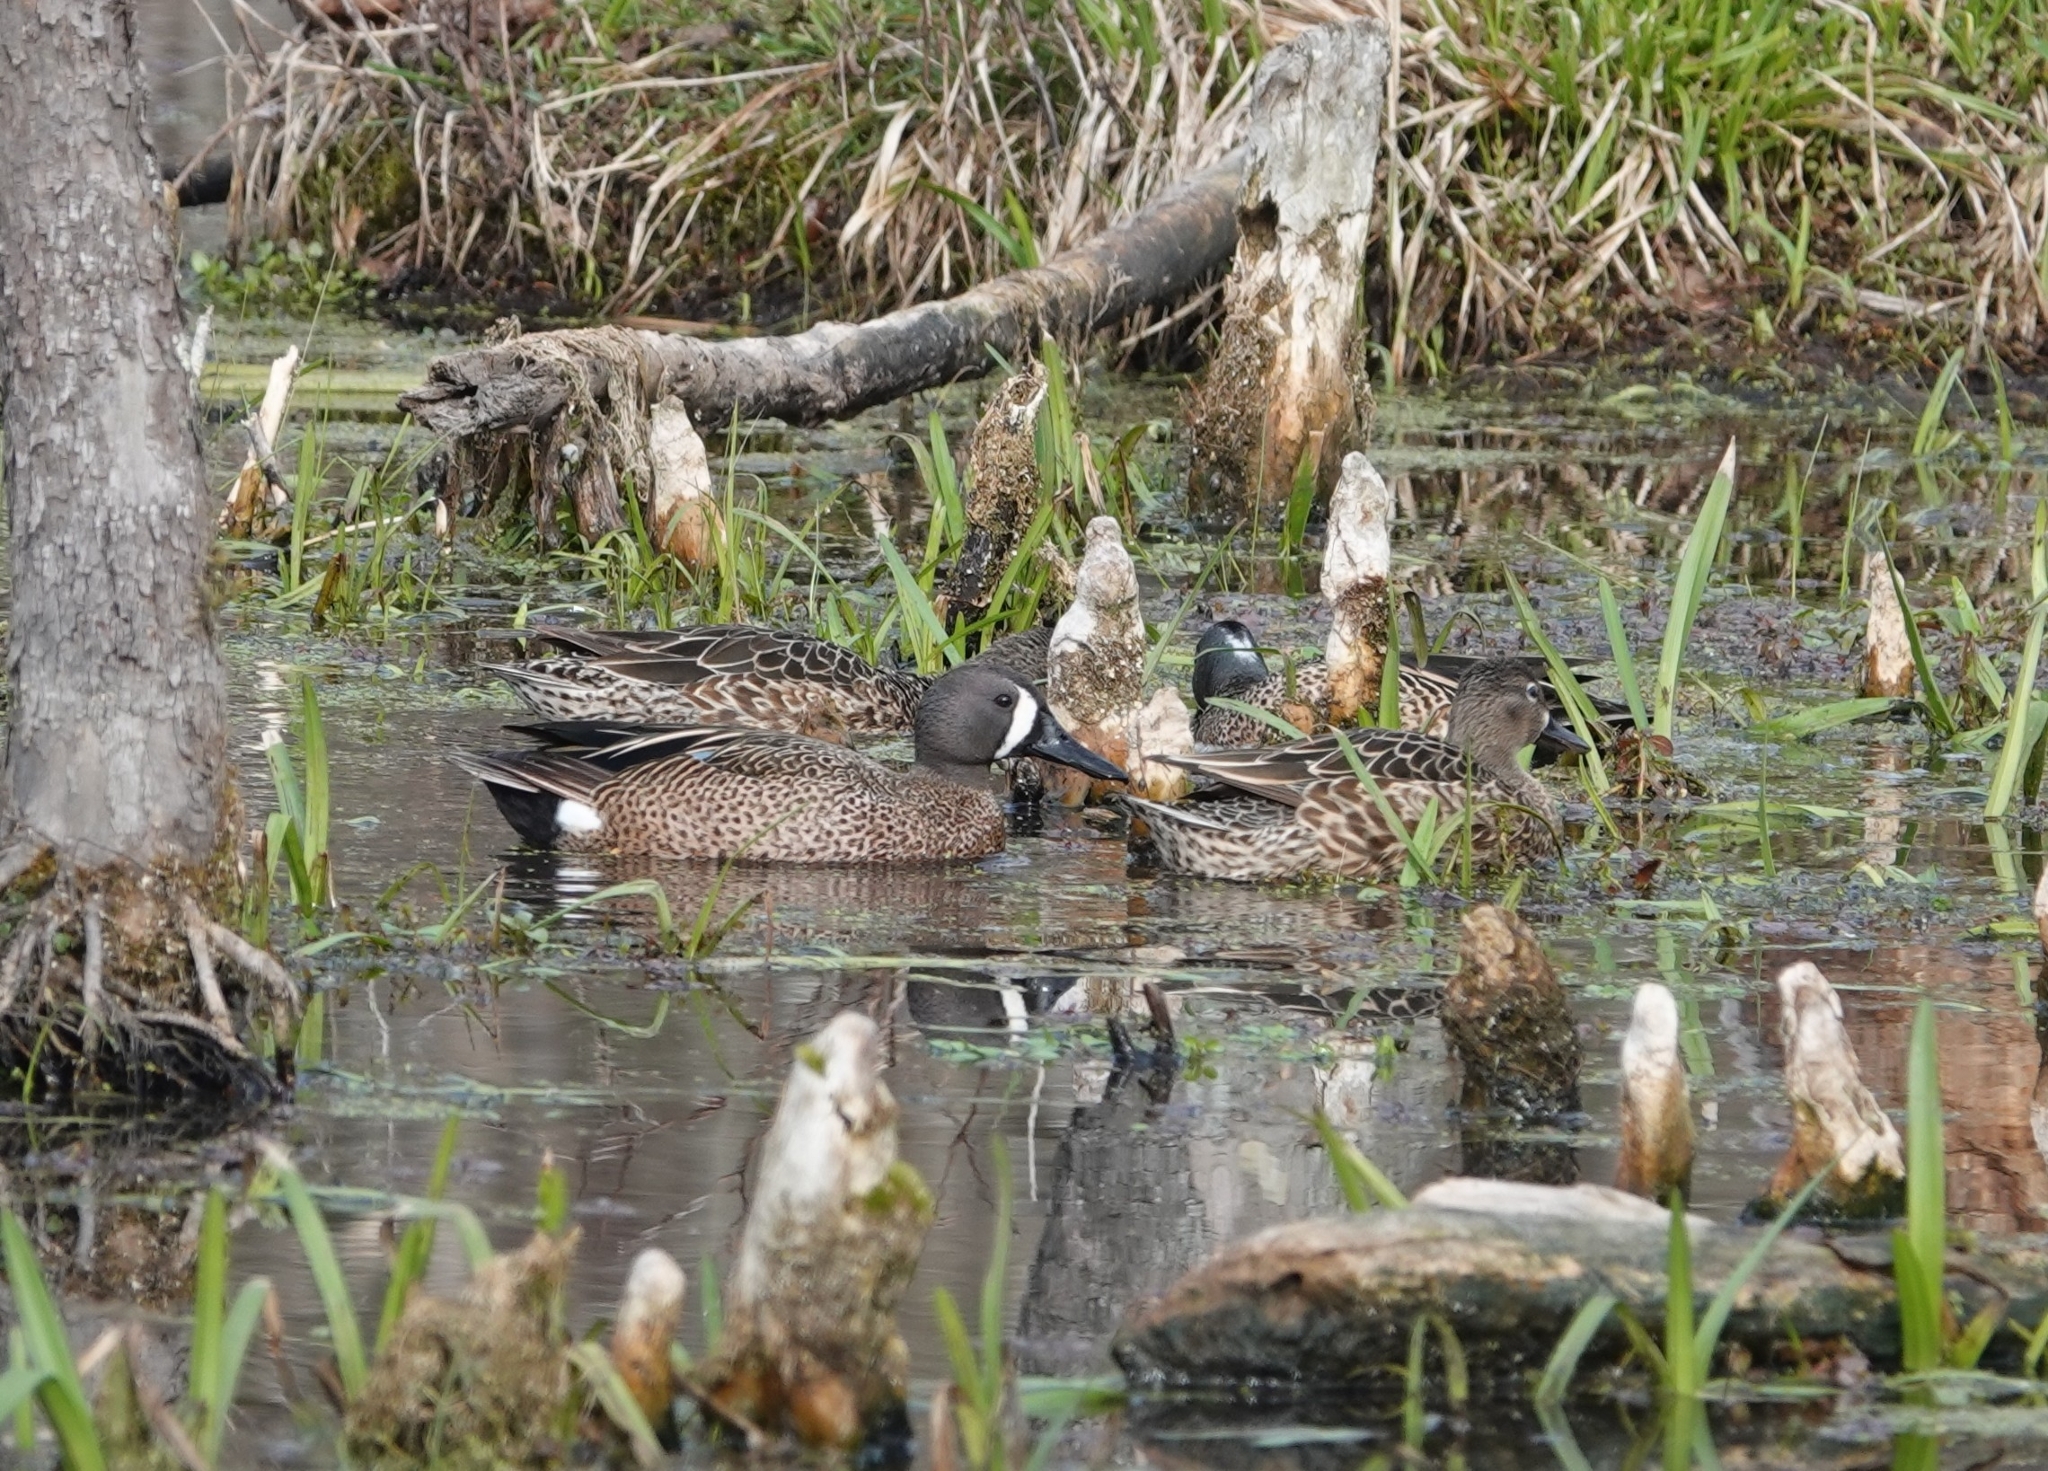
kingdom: Animalia
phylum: Chordata
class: Aves
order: Anseriformes
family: Anatidae
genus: Spatula
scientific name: Spatula discors
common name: Blue-winged teal
